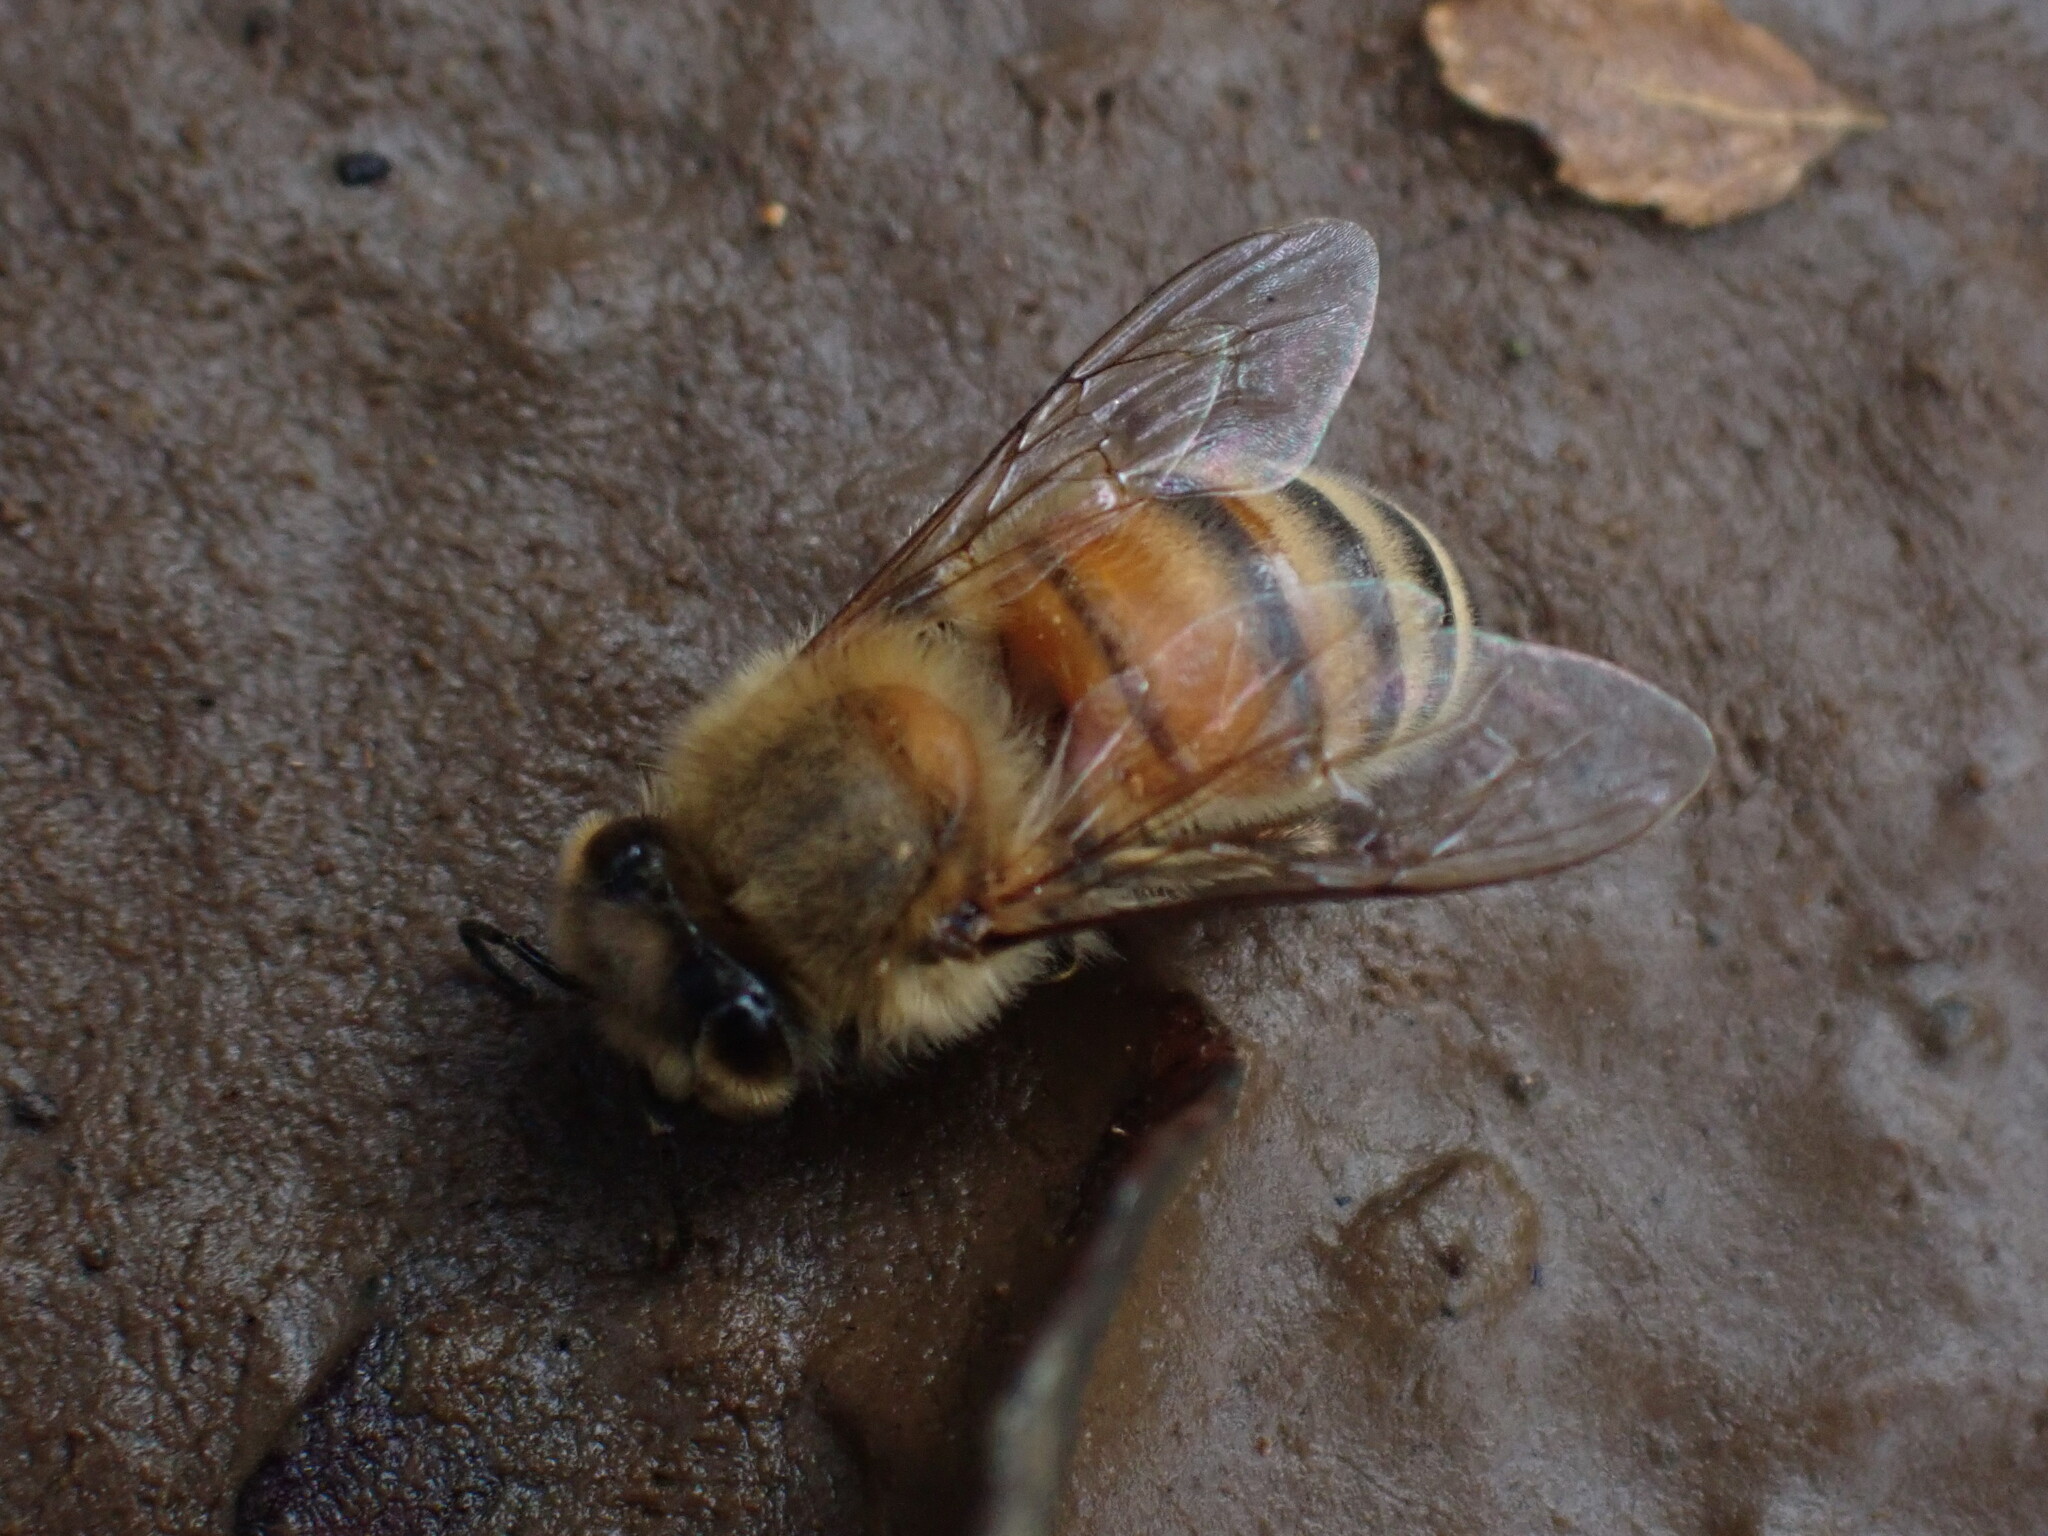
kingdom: Animalia
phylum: Arthropoda
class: Insecta
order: Hymenoptera
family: Apidae
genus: Apis
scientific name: Apis mellifera
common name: Honey bee
